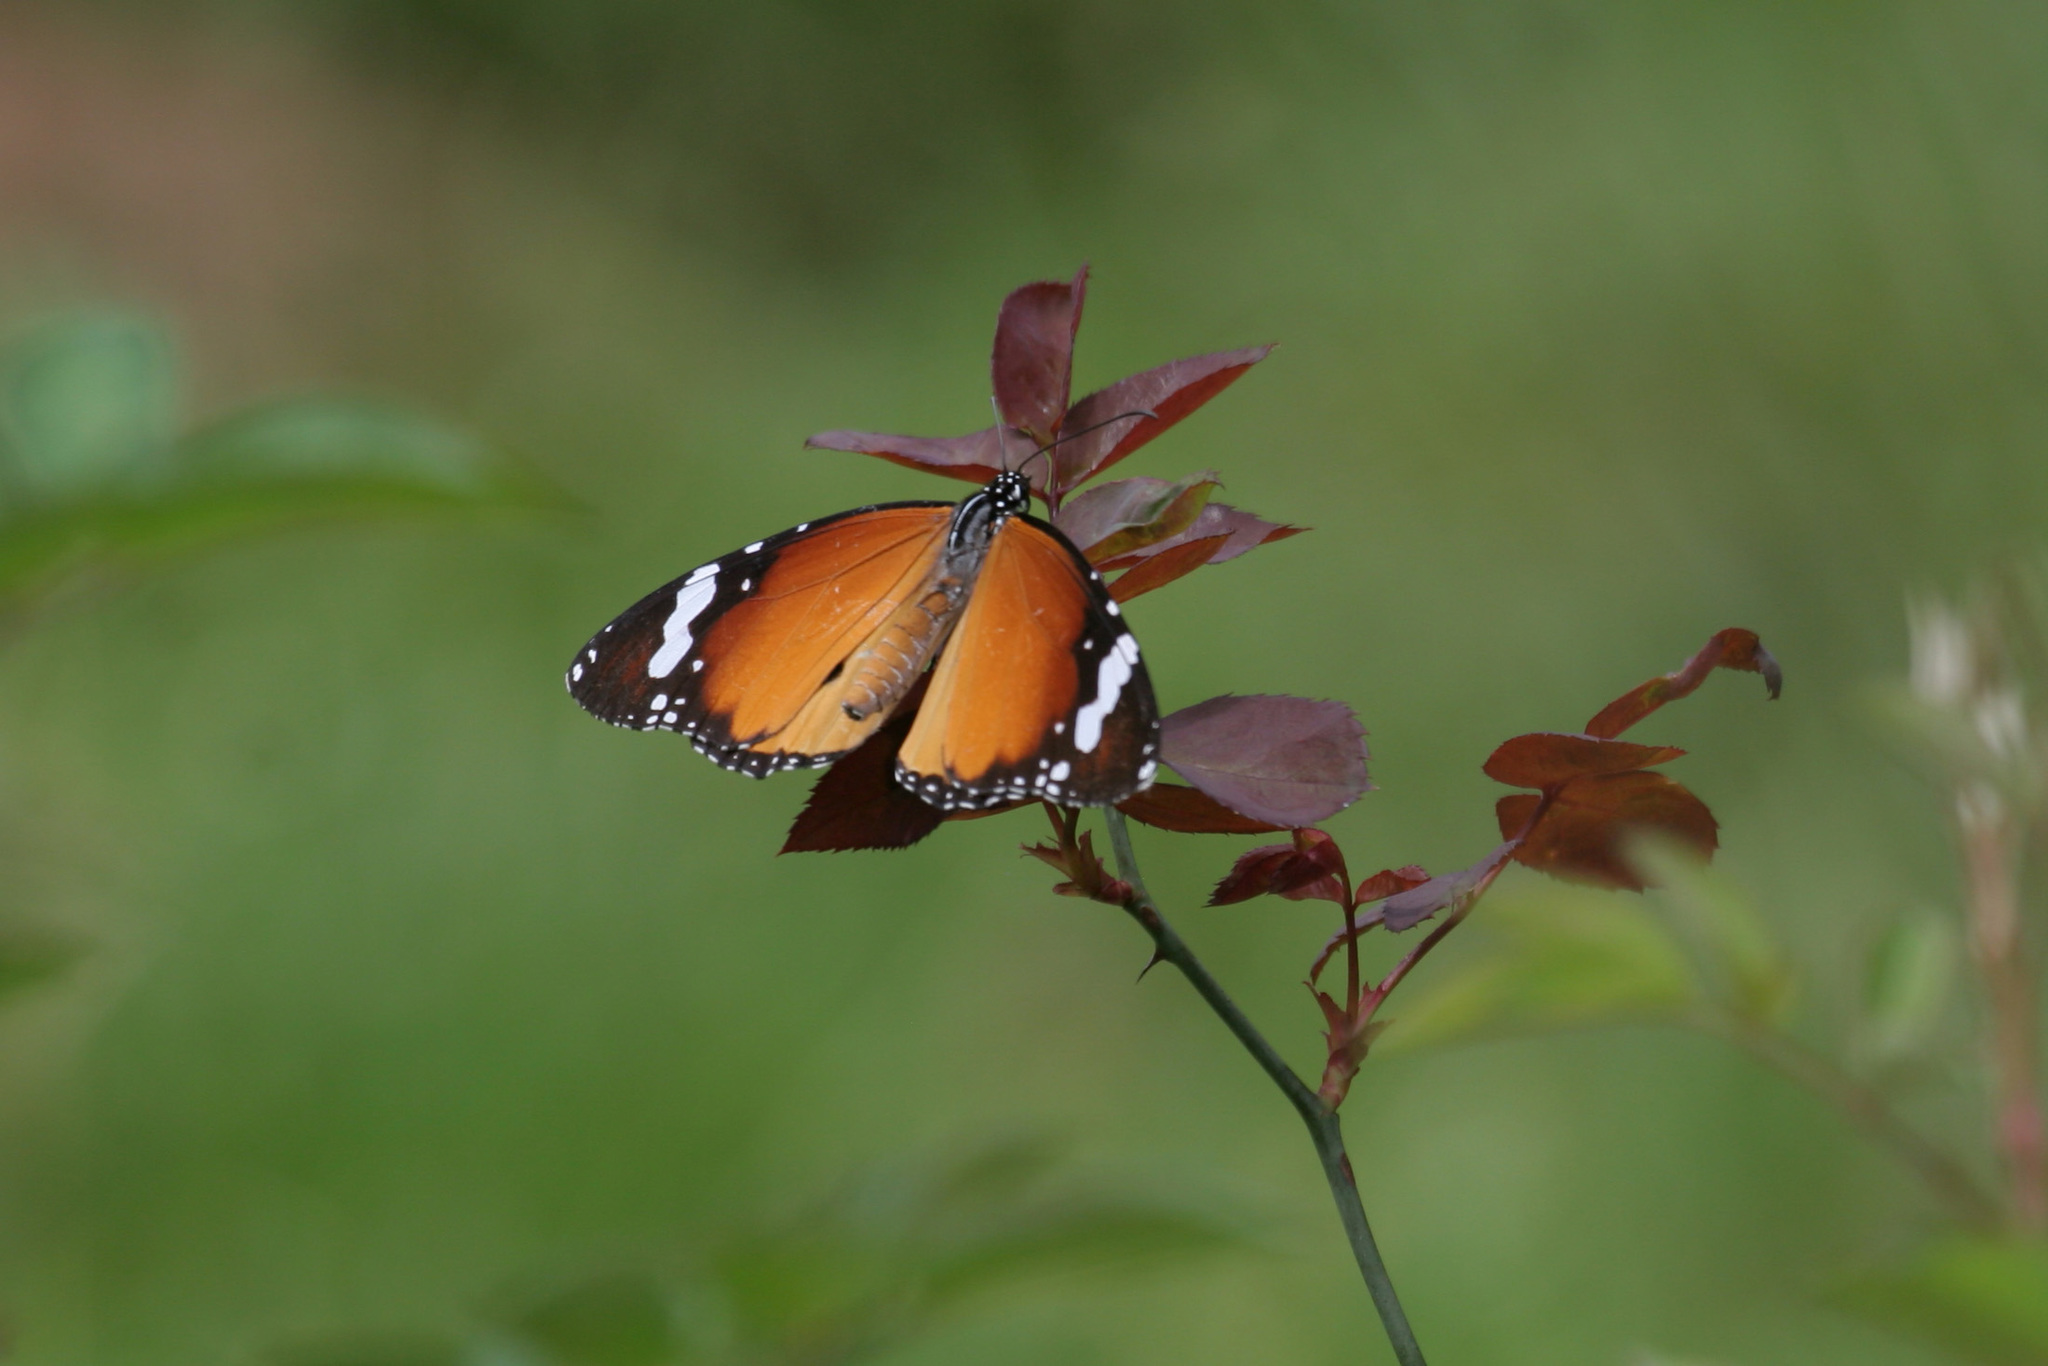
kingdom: Animalia
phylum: Arthropoda
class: Insecta
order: Lepidoptera
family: Nymphalidae
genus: Danaus
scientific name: Danaus chrysippus
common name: Plain tiger
